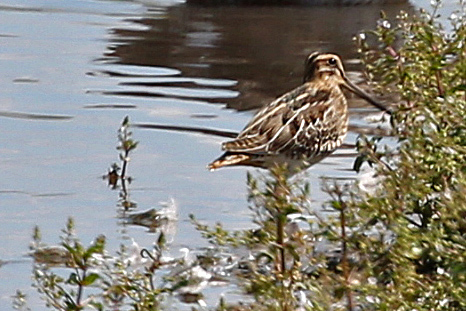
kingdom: Animalia
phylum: Chordata
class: Aves
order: Charadriiformes
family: Scolopacidae
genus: Gallinago
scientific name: Gallinago gallinago
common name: Common snipe
